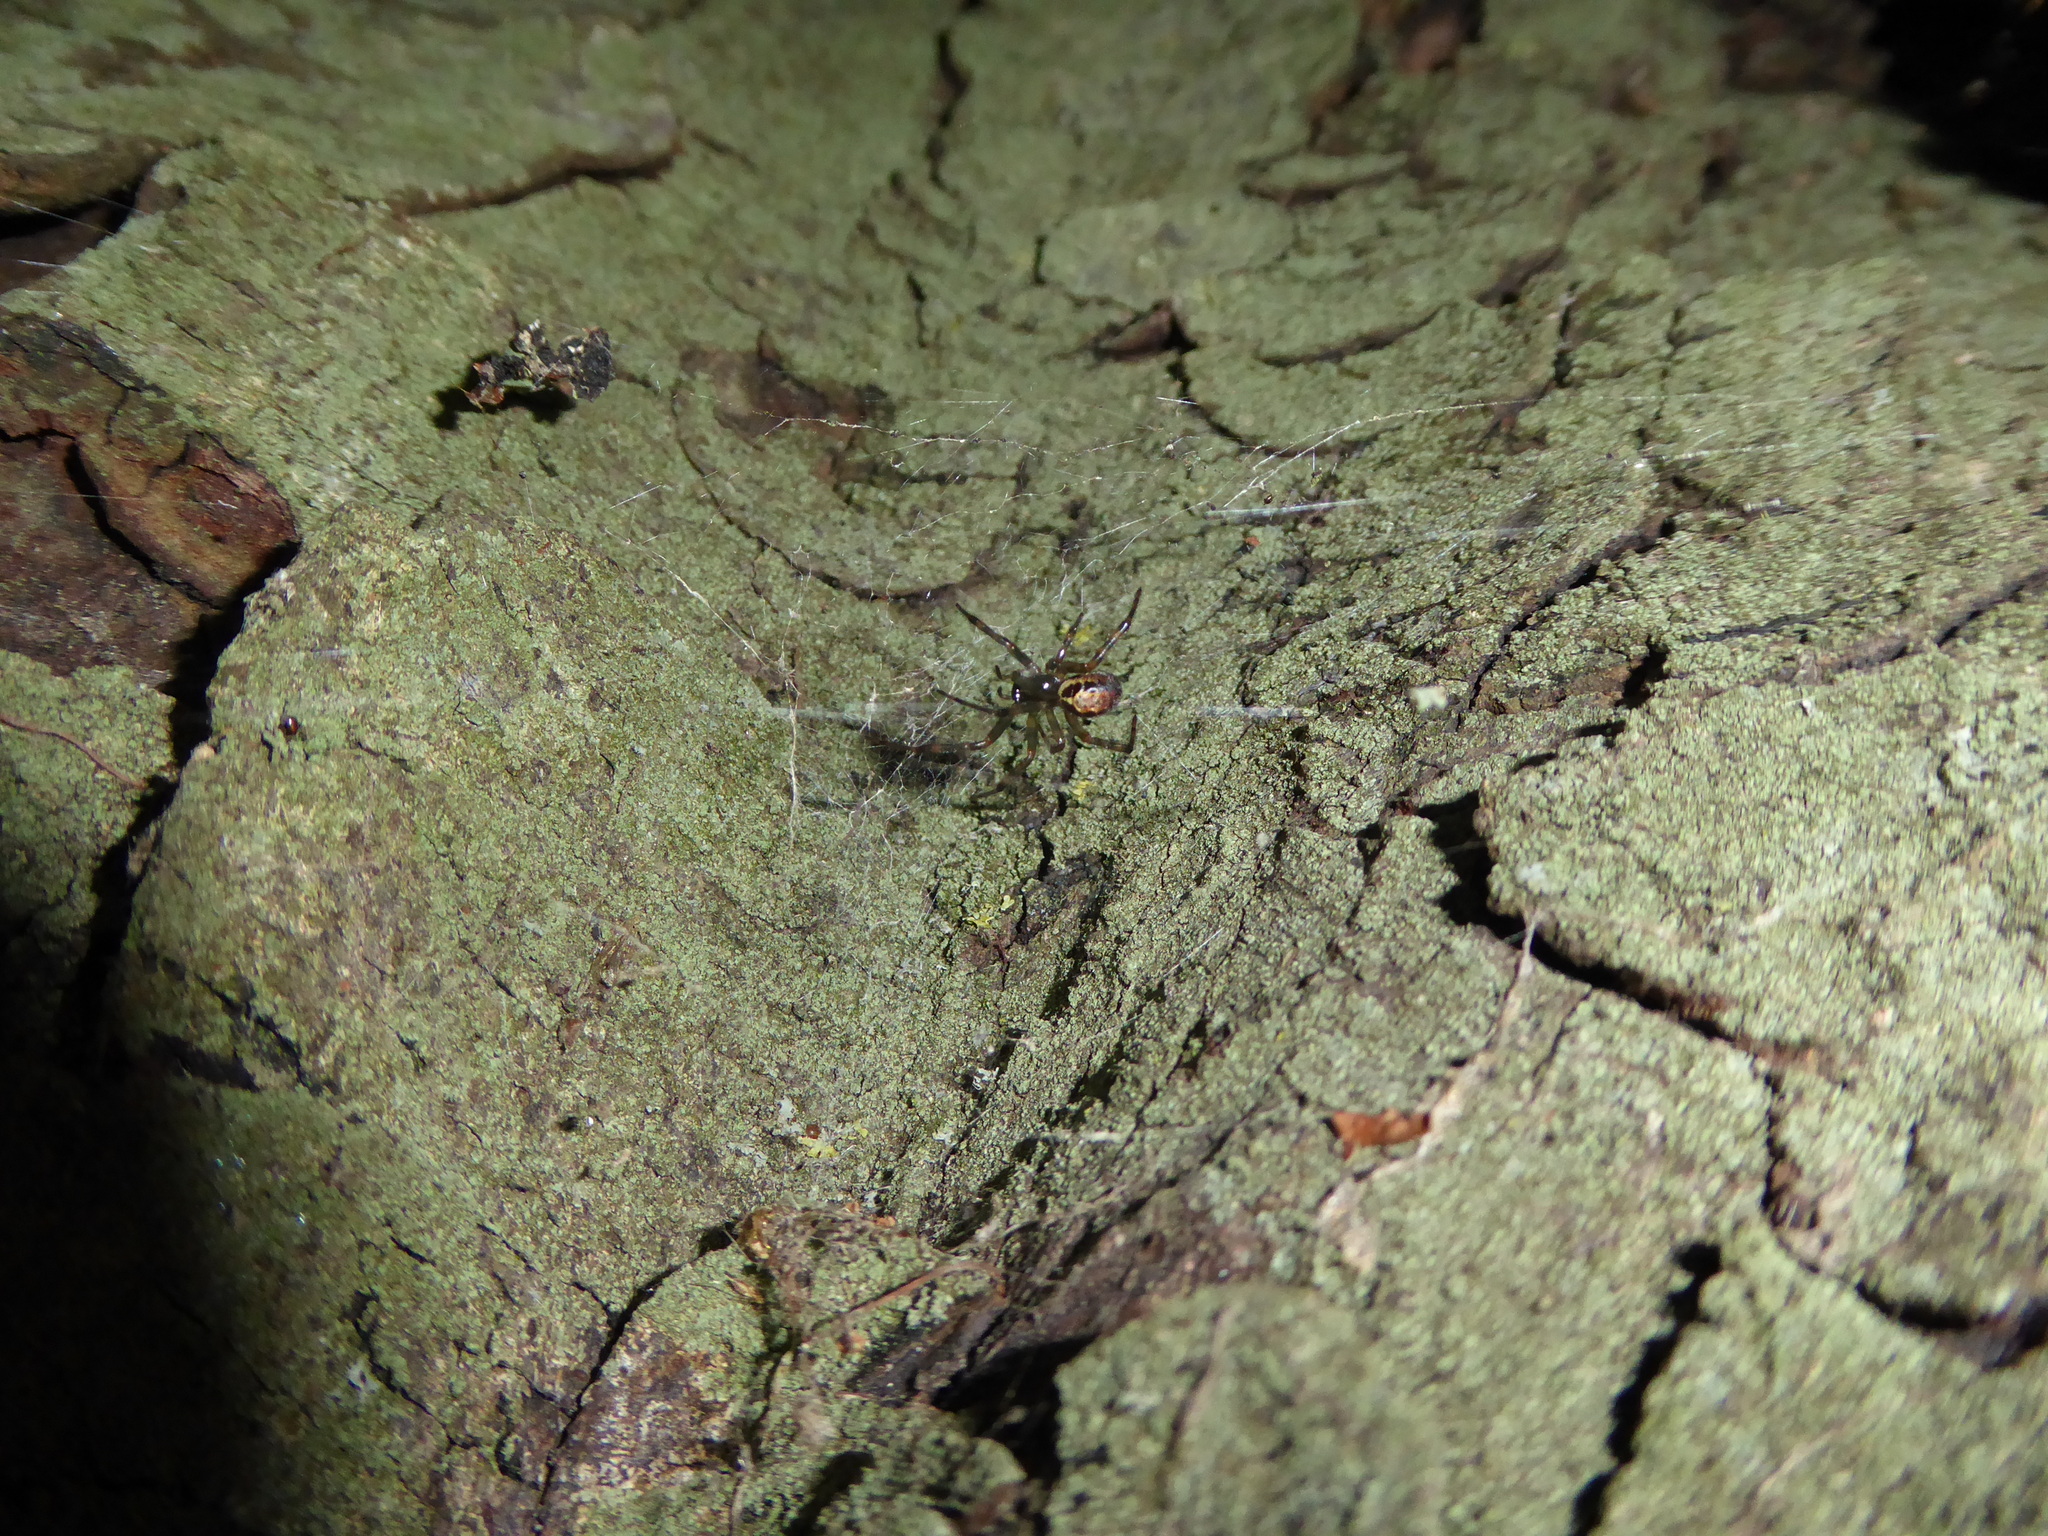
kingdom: Animalia
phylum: Arthropoda
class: Arachnida
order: Araneae
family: Theridiidae
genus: Steatoda
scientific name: Steatoda nobilis
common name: Cobweb weaver
